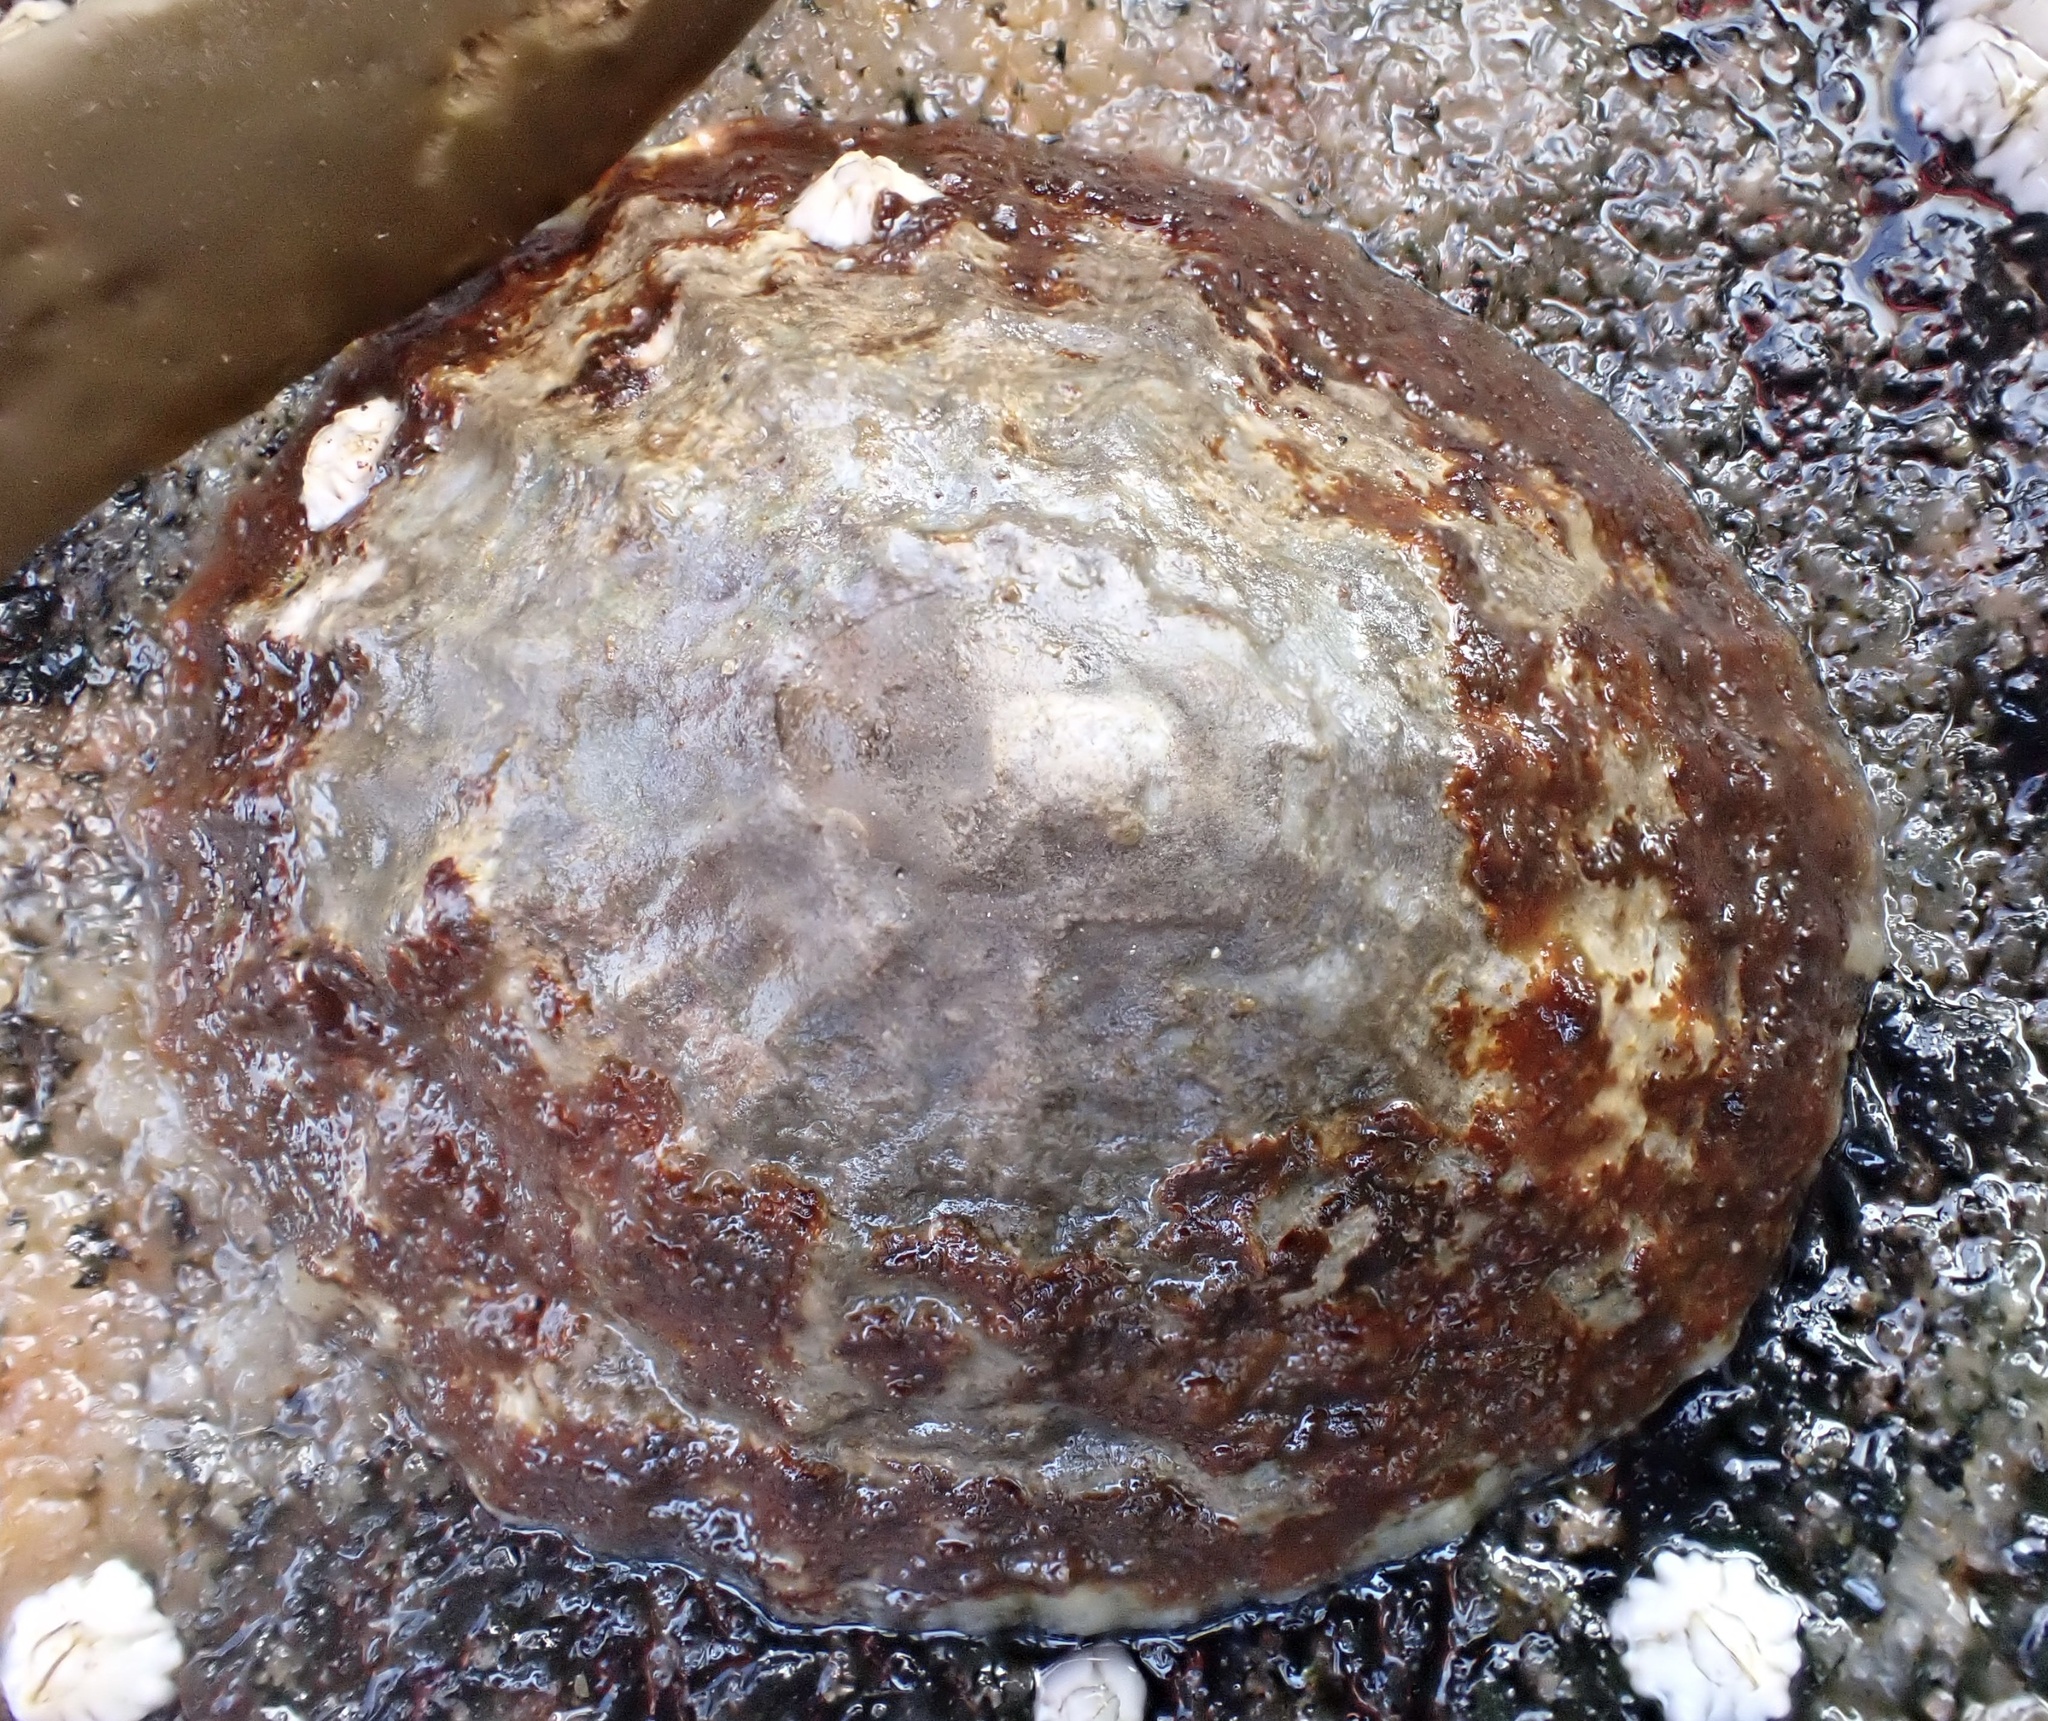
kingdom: Animalia
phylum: Mollusca
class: Gastropoda
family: Patellidae
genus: Patella
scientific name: Patella
